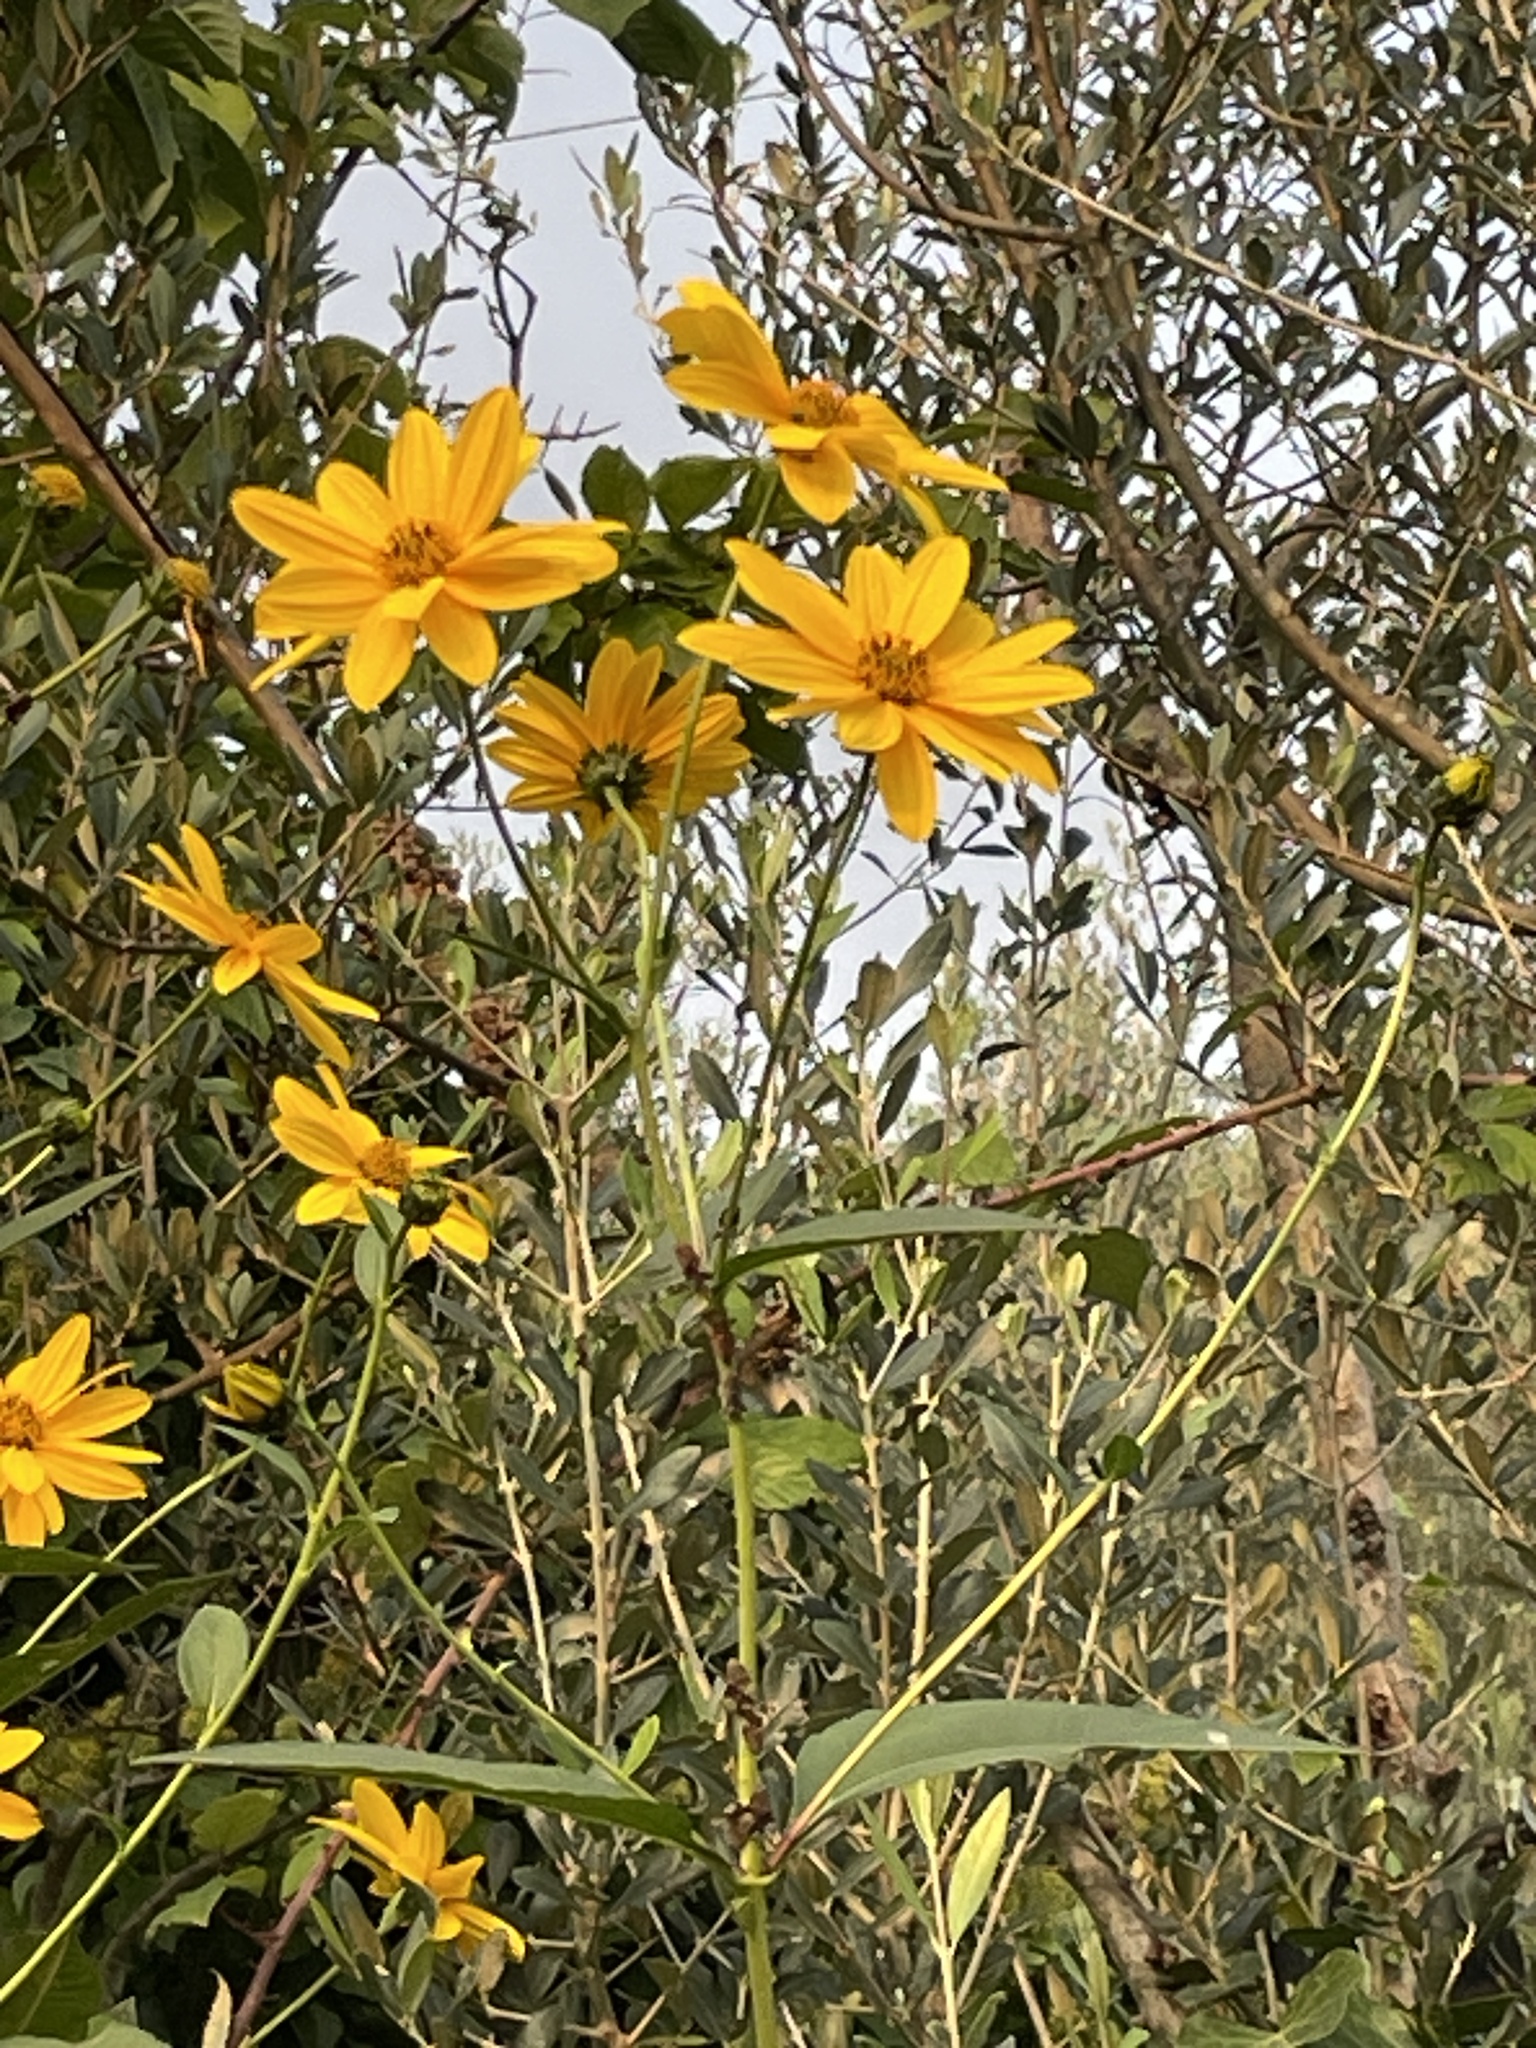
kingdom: Plantae
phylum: Tracheophyta
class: Magnoliopsida
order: Asterales
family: Asteraceae
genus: Helianthus
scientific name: Helianthus tuberosus
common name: Jerusalem artichoke
